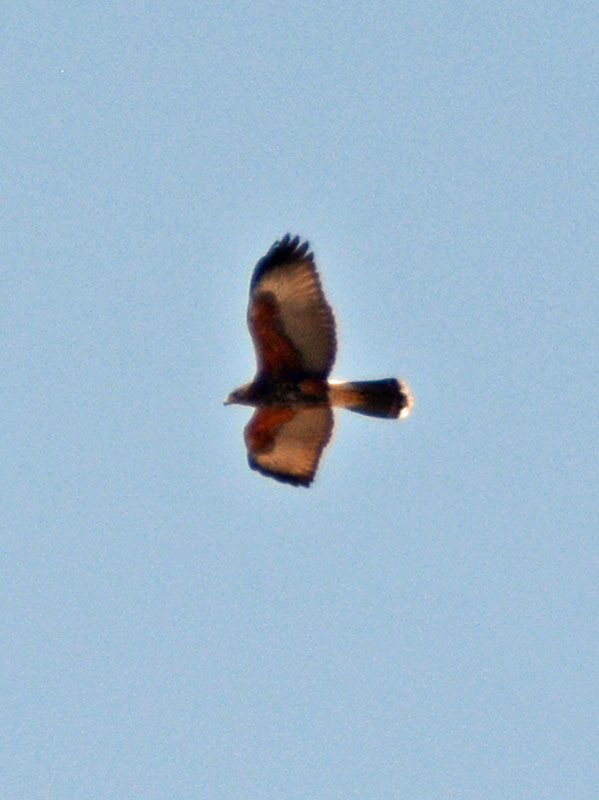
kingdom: Animalia
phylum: Chordata
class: Aves
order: Accipitriformes
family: Accipitridae
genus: Parabuteo
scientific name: Parabuteo unicinctus
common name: Harris's hawk
